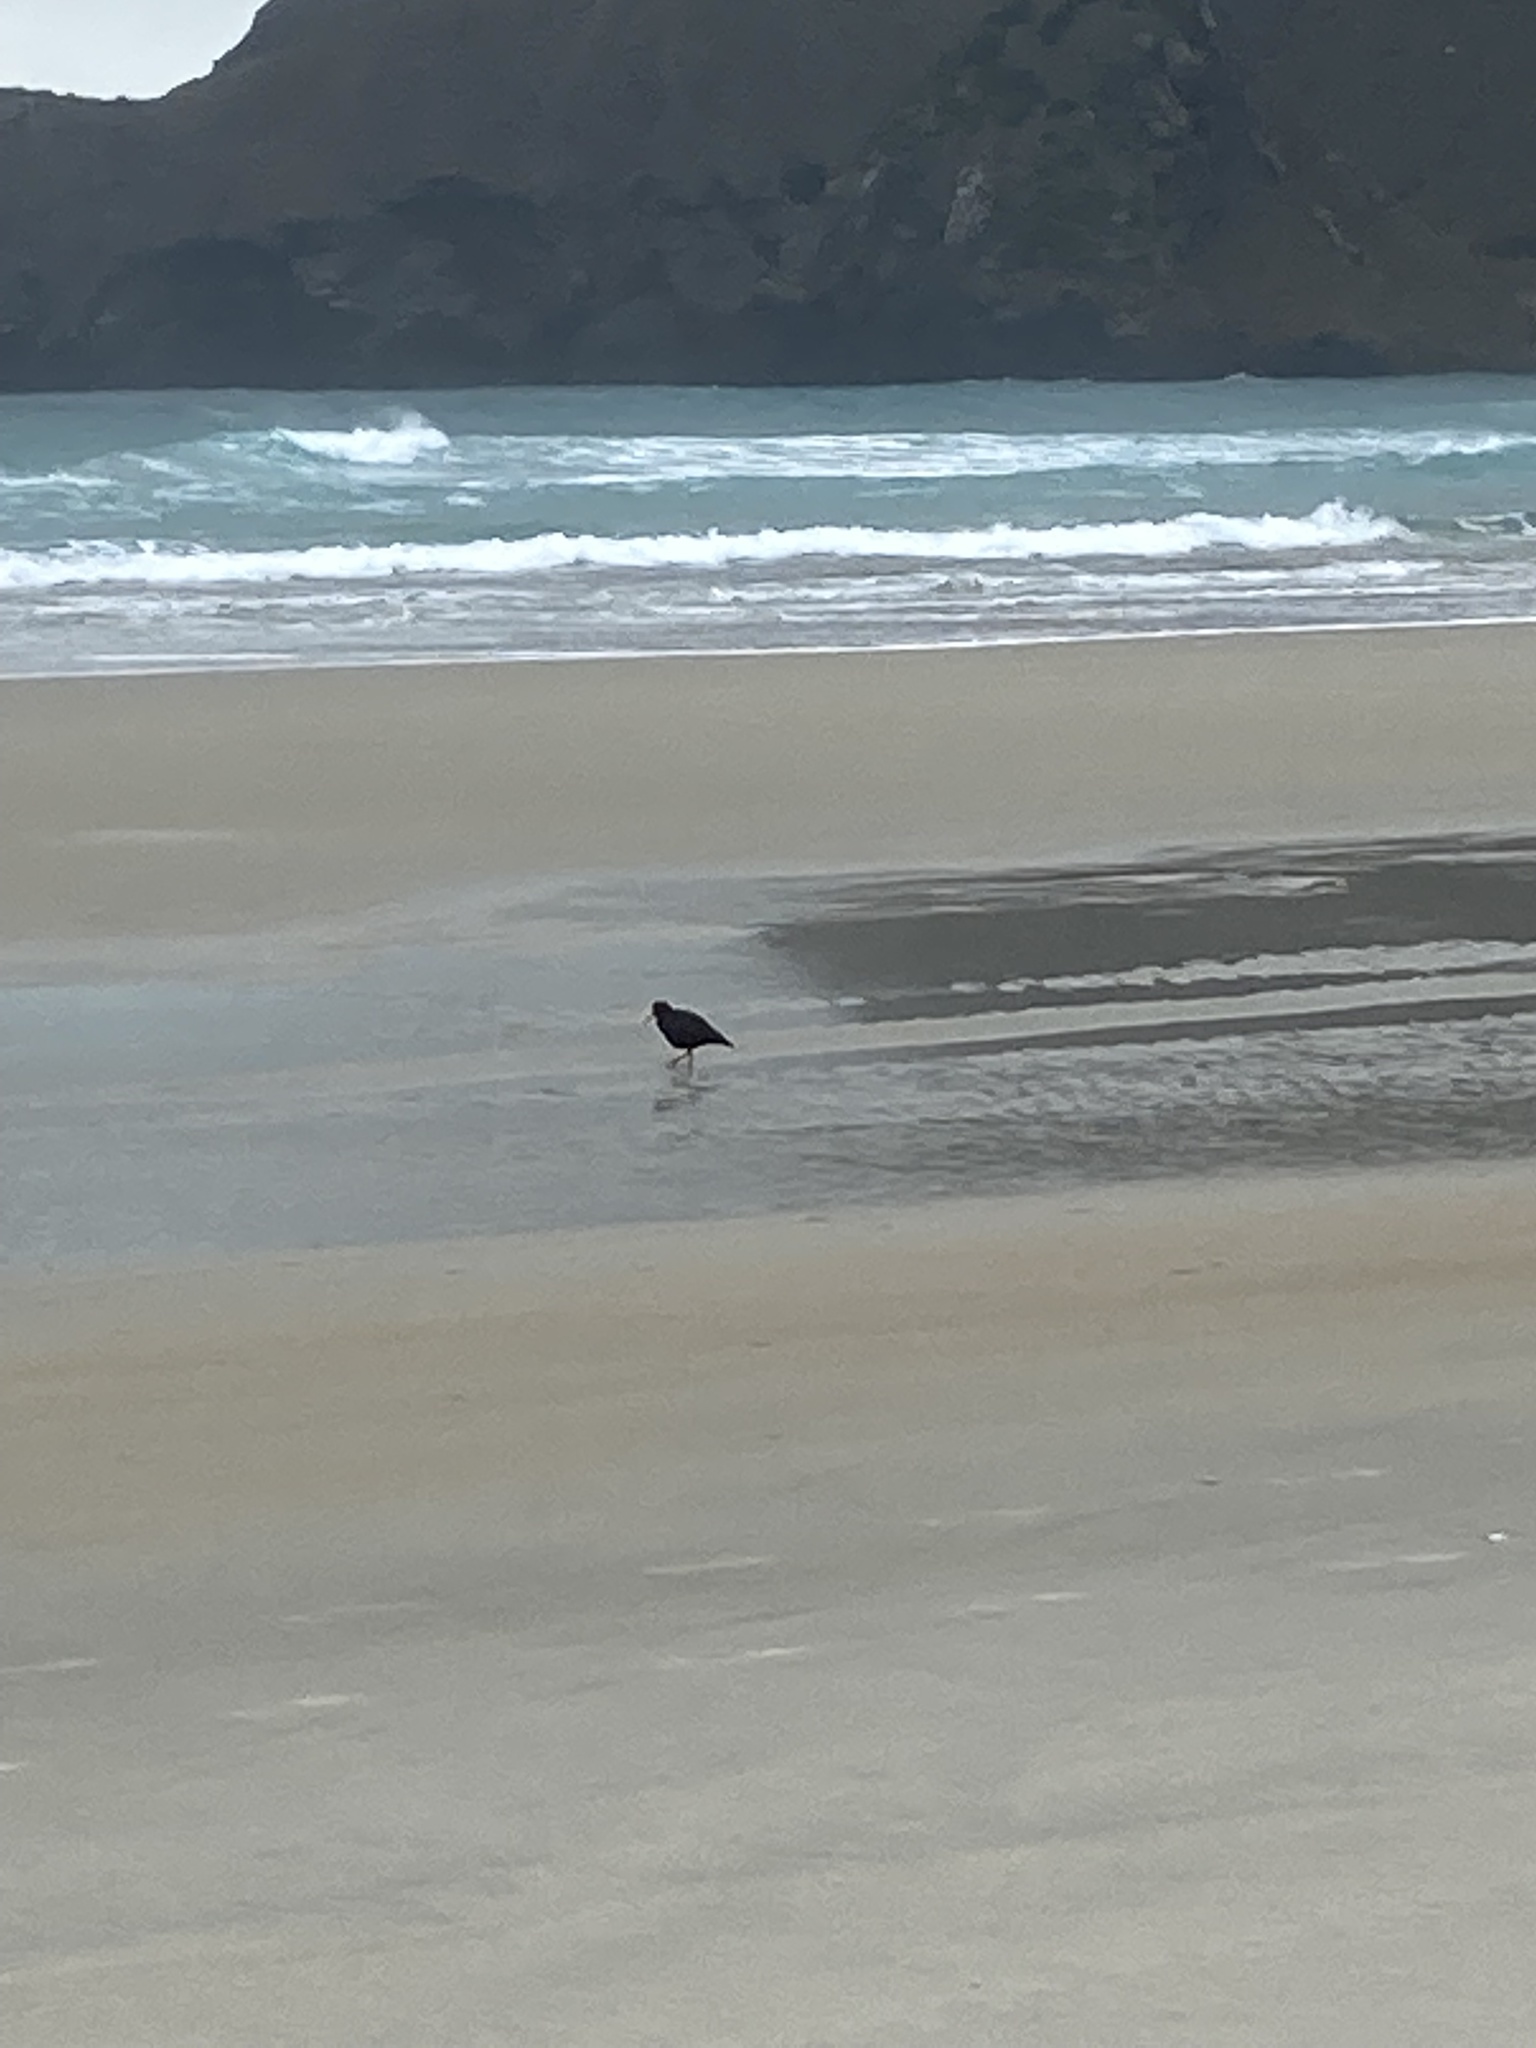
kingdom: Animalia
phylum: Chordata
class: Aves
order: Charadriiformes
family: Haematopodidae
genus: Haematopus
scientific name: Haematopus unicolor
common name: Variable oystercatcher
